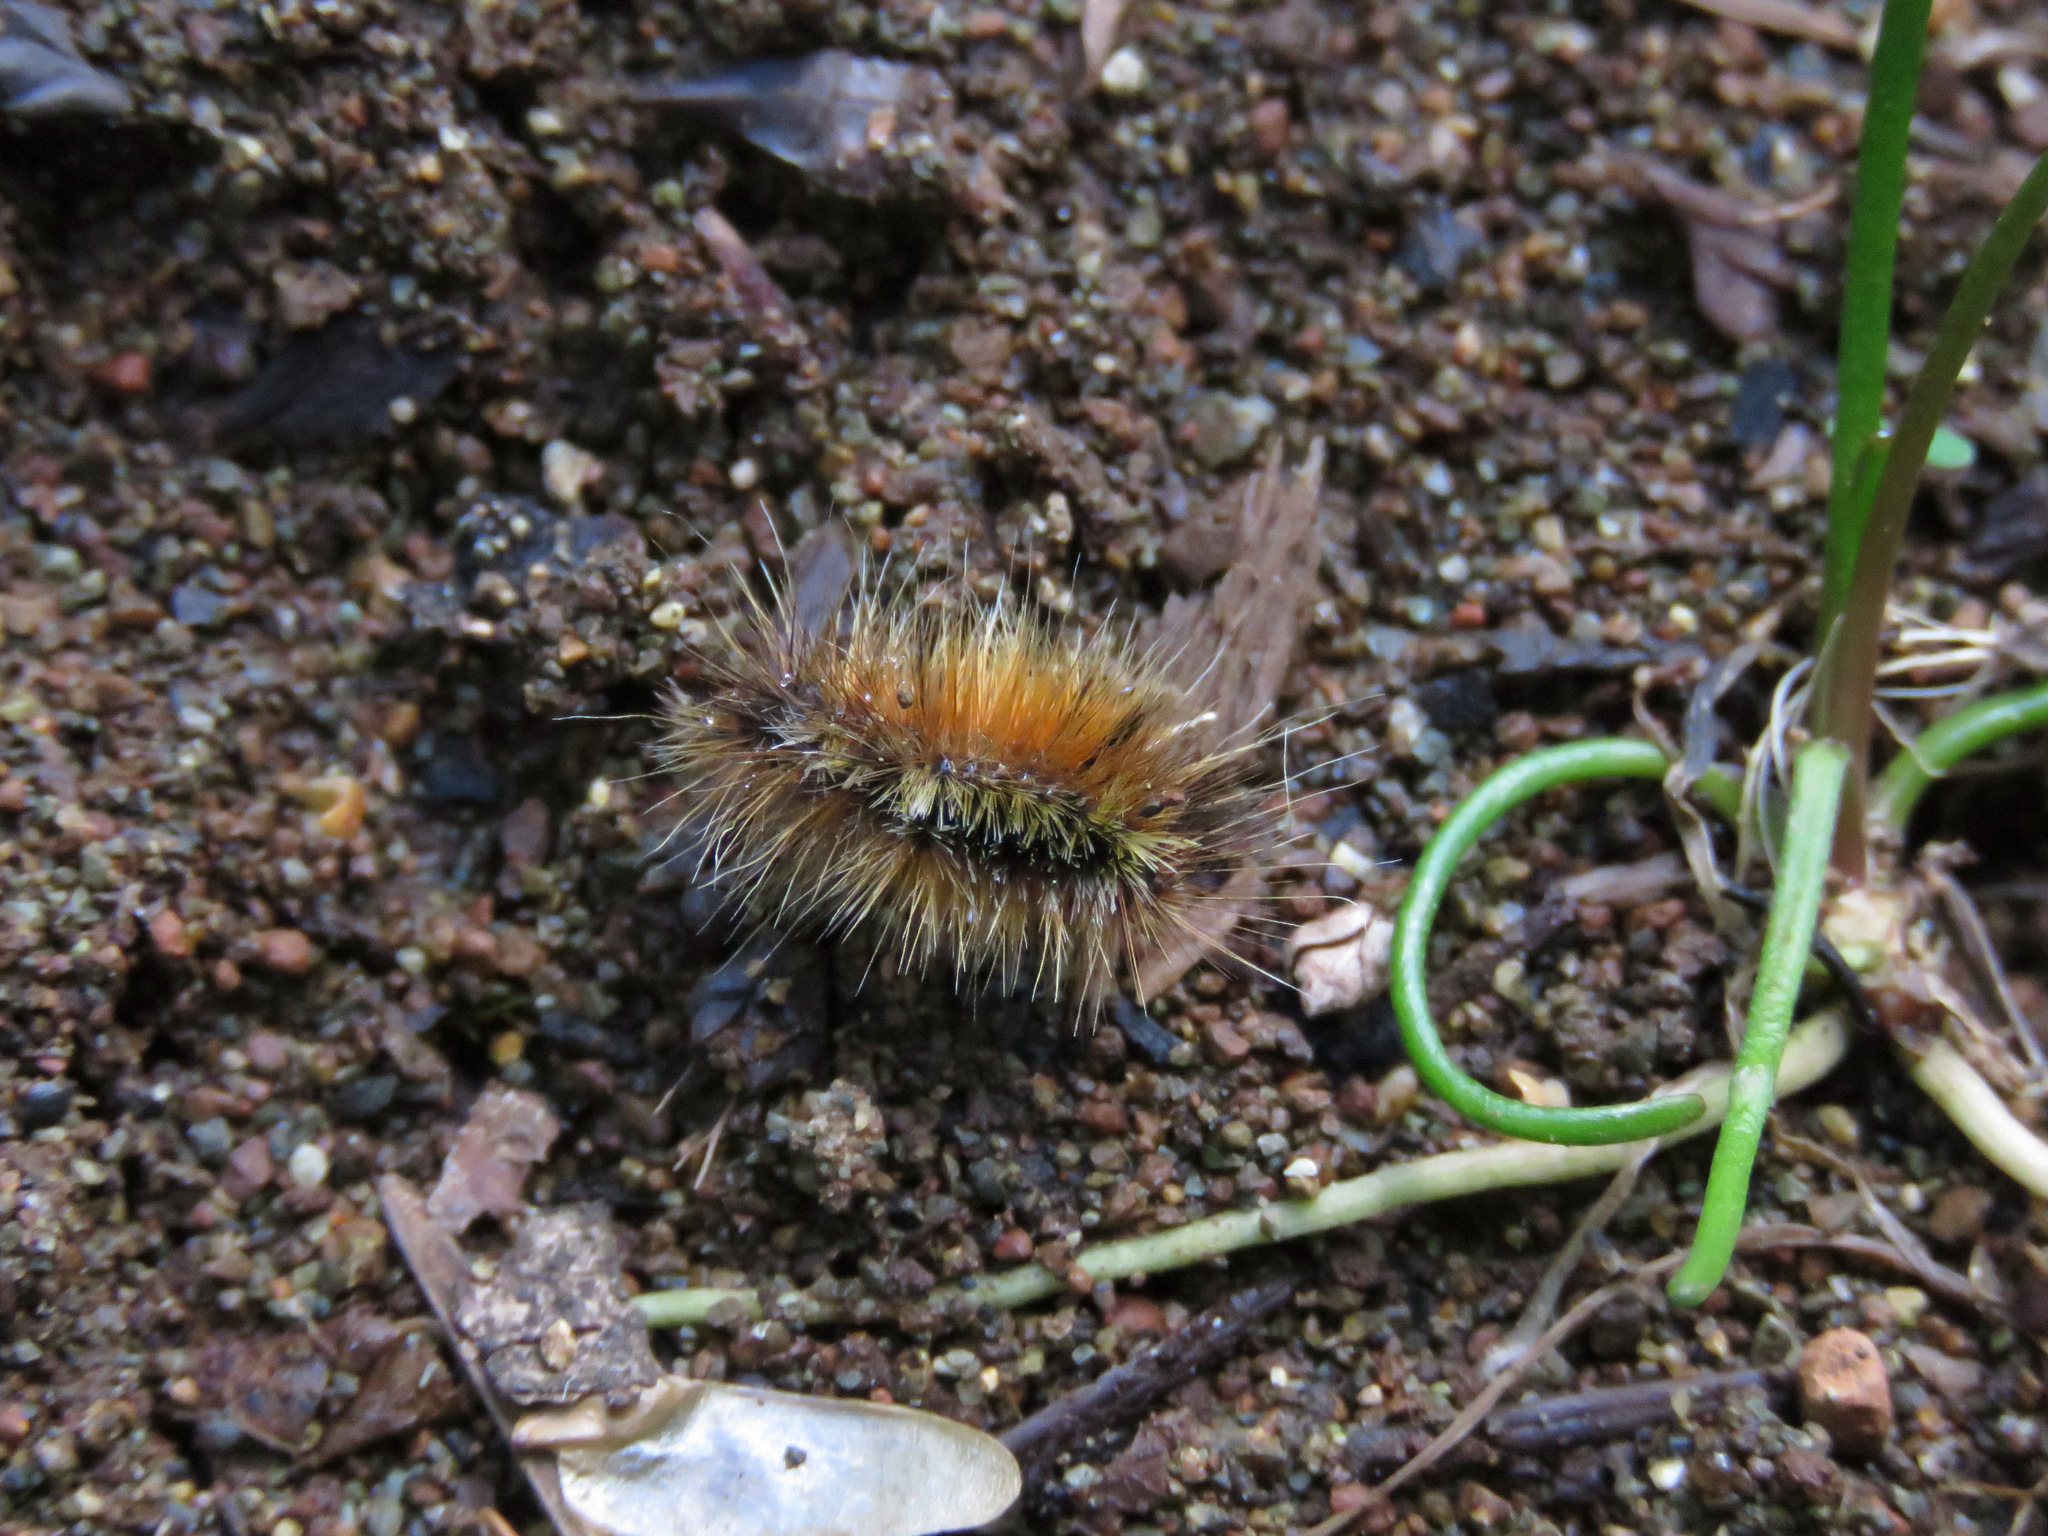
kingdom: Animalia
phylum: Arthropoda
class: Insecta
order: Lepidoptera
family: Erebidae
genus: Spilosoma
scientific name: Spilosoma virginica
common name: Virginia tiger moth
